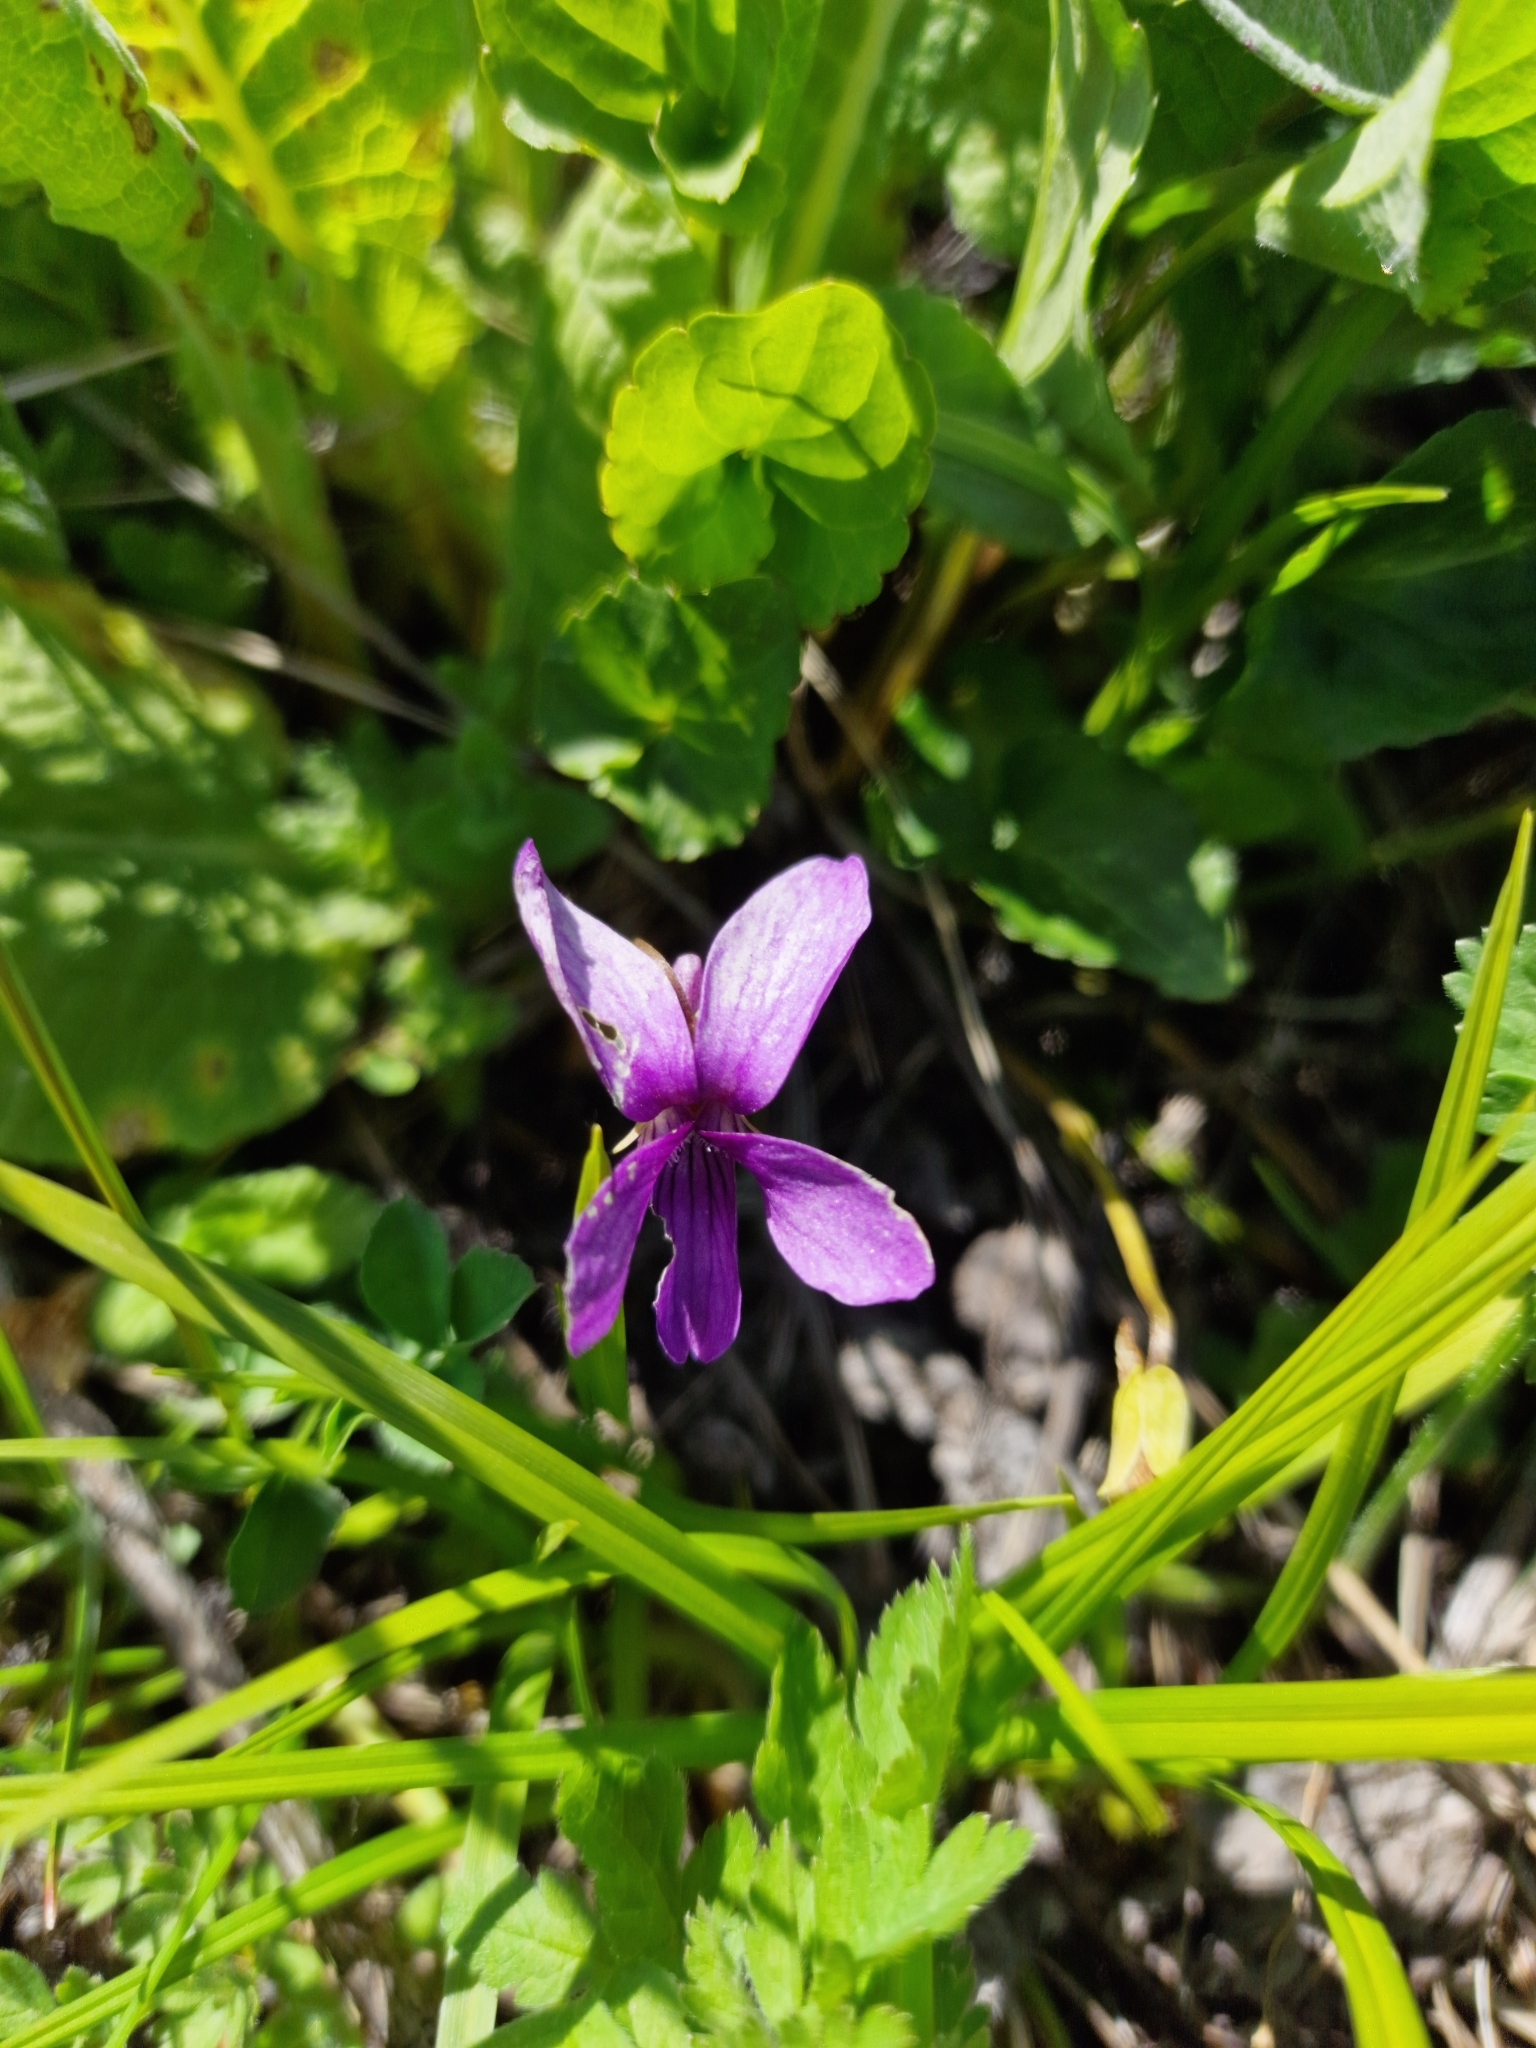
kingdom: Plantae
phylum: Tracheophyta
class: Magnoliopsida
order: Malpighiales
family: Violaceae
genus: Viola
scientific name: Viola
